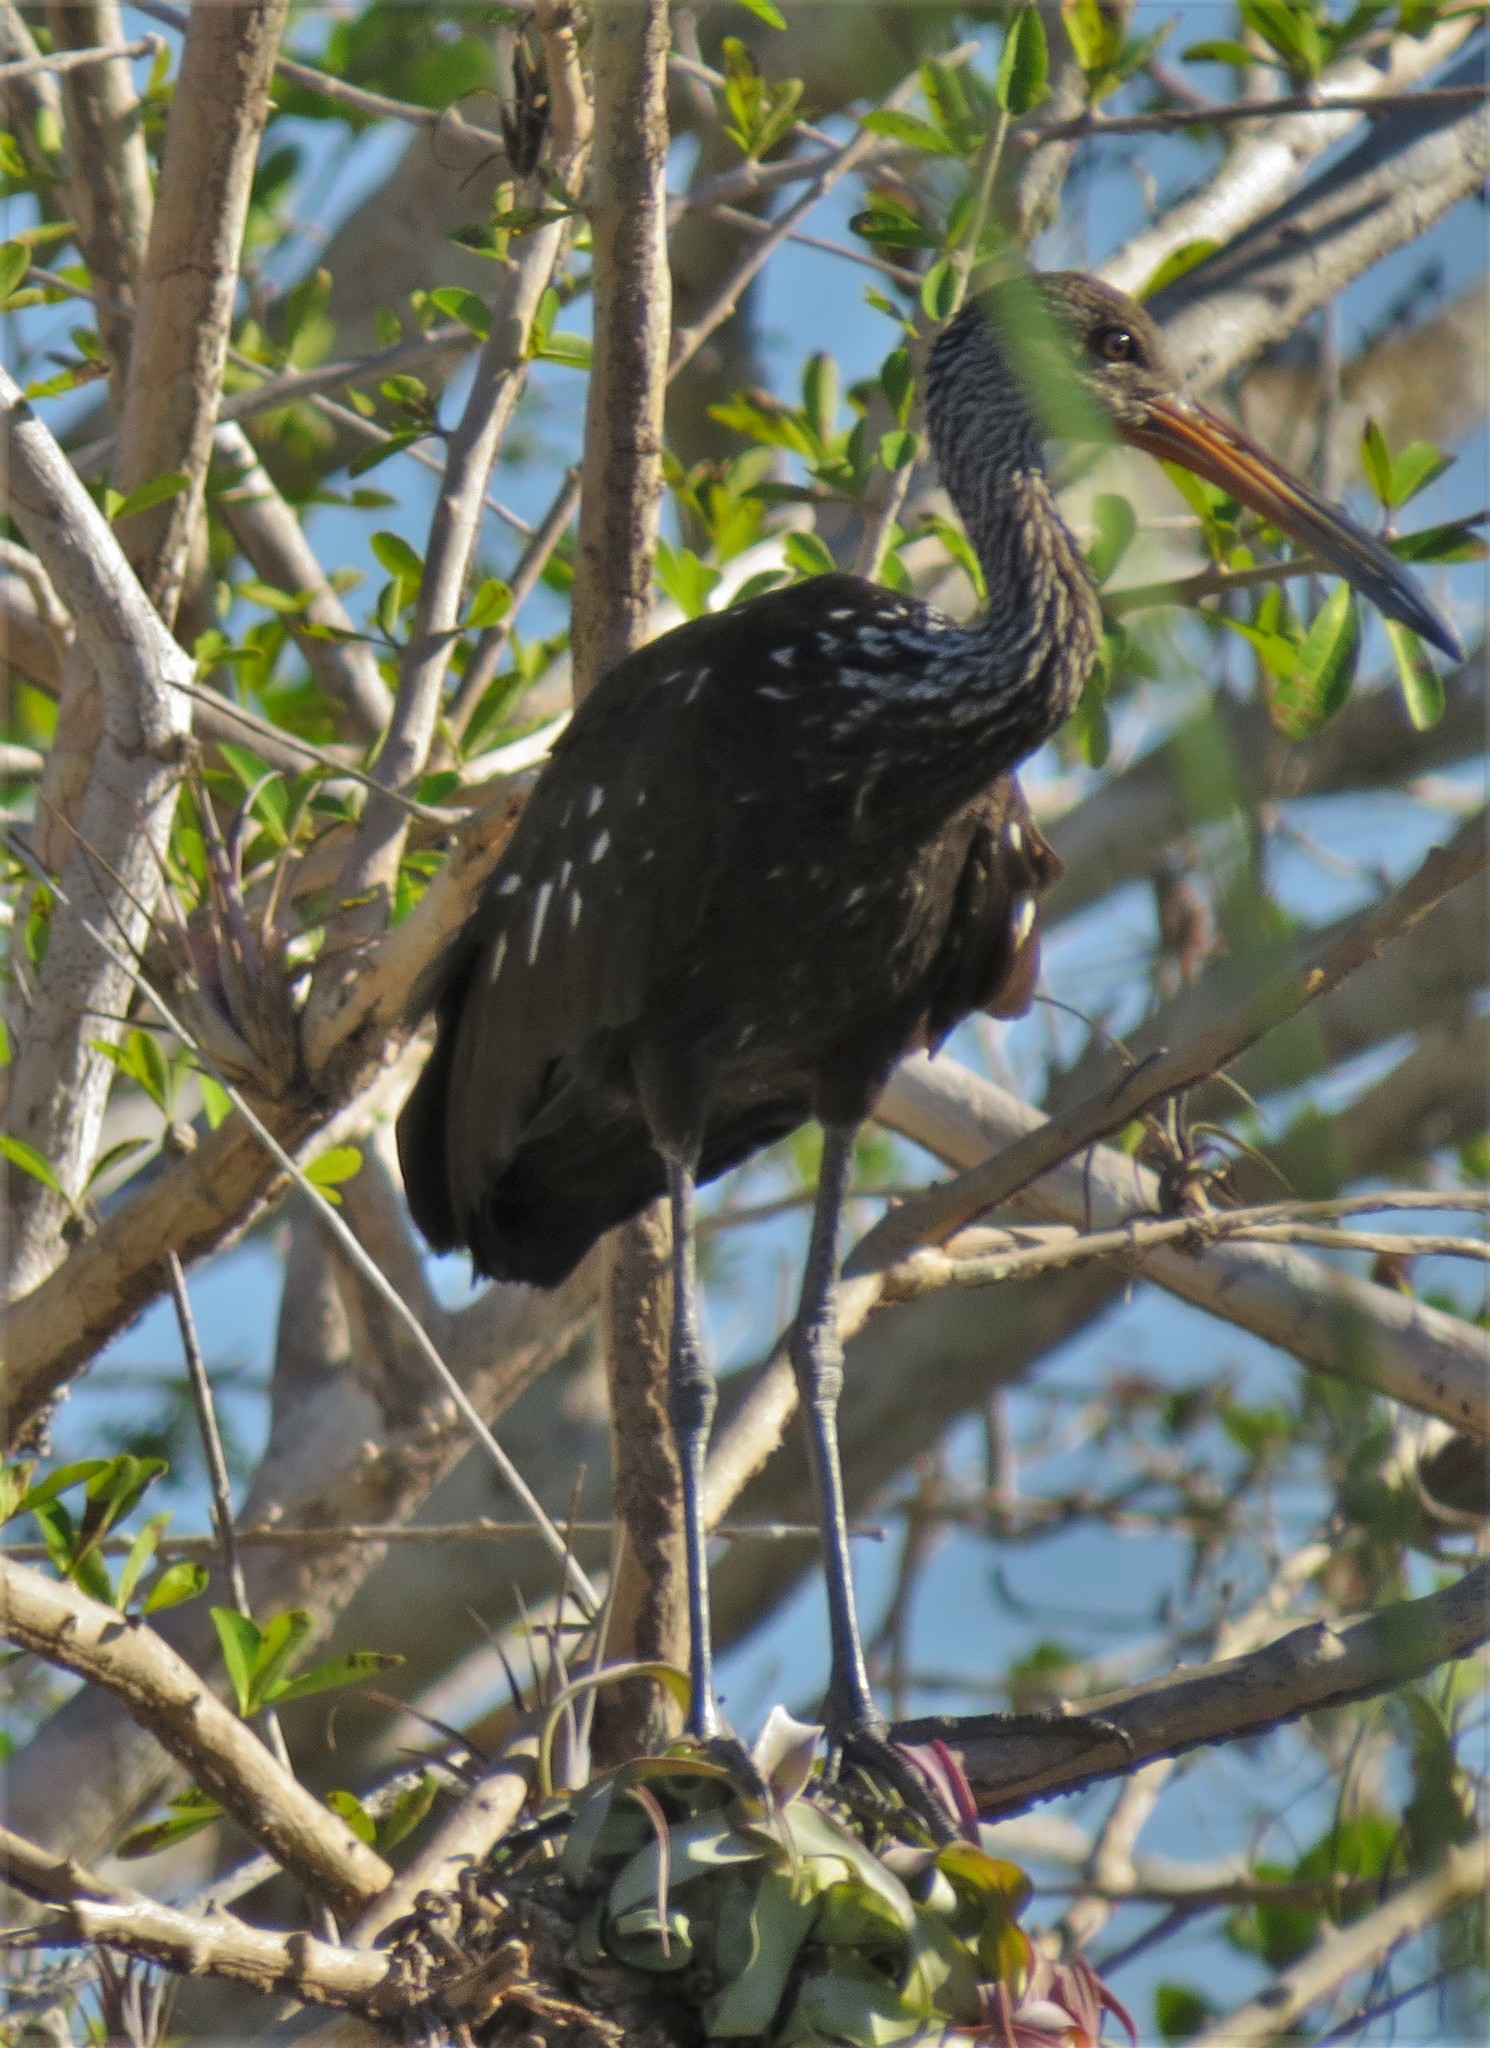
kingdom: Animalia
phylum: Chordata
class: Aves
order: Gruiformes
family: Aramidae
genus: Aramus
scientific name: Aramus guarauna
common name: Limpkin
